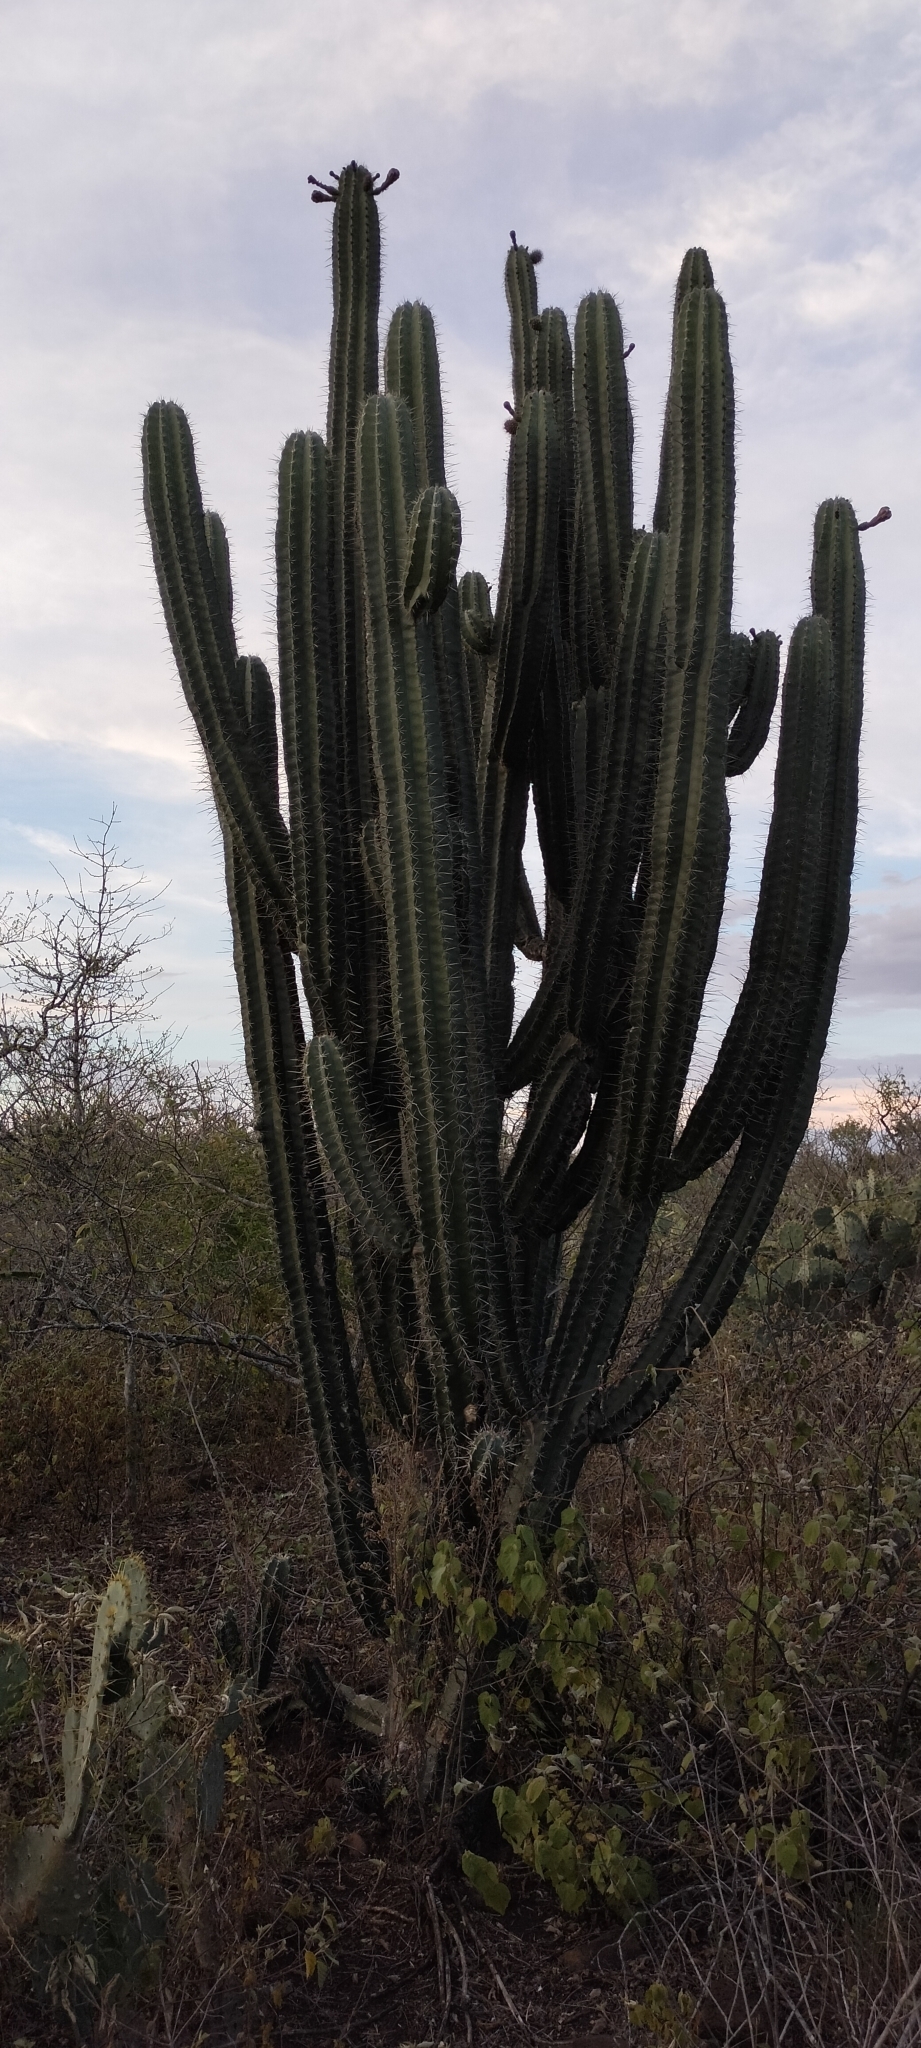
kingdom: Plantae
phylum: Tracheophyta
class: Magnoliopsida
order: Caryophyllales
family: Cactaceae
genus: Stenocereus
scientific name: Stenocereus huastecorum
